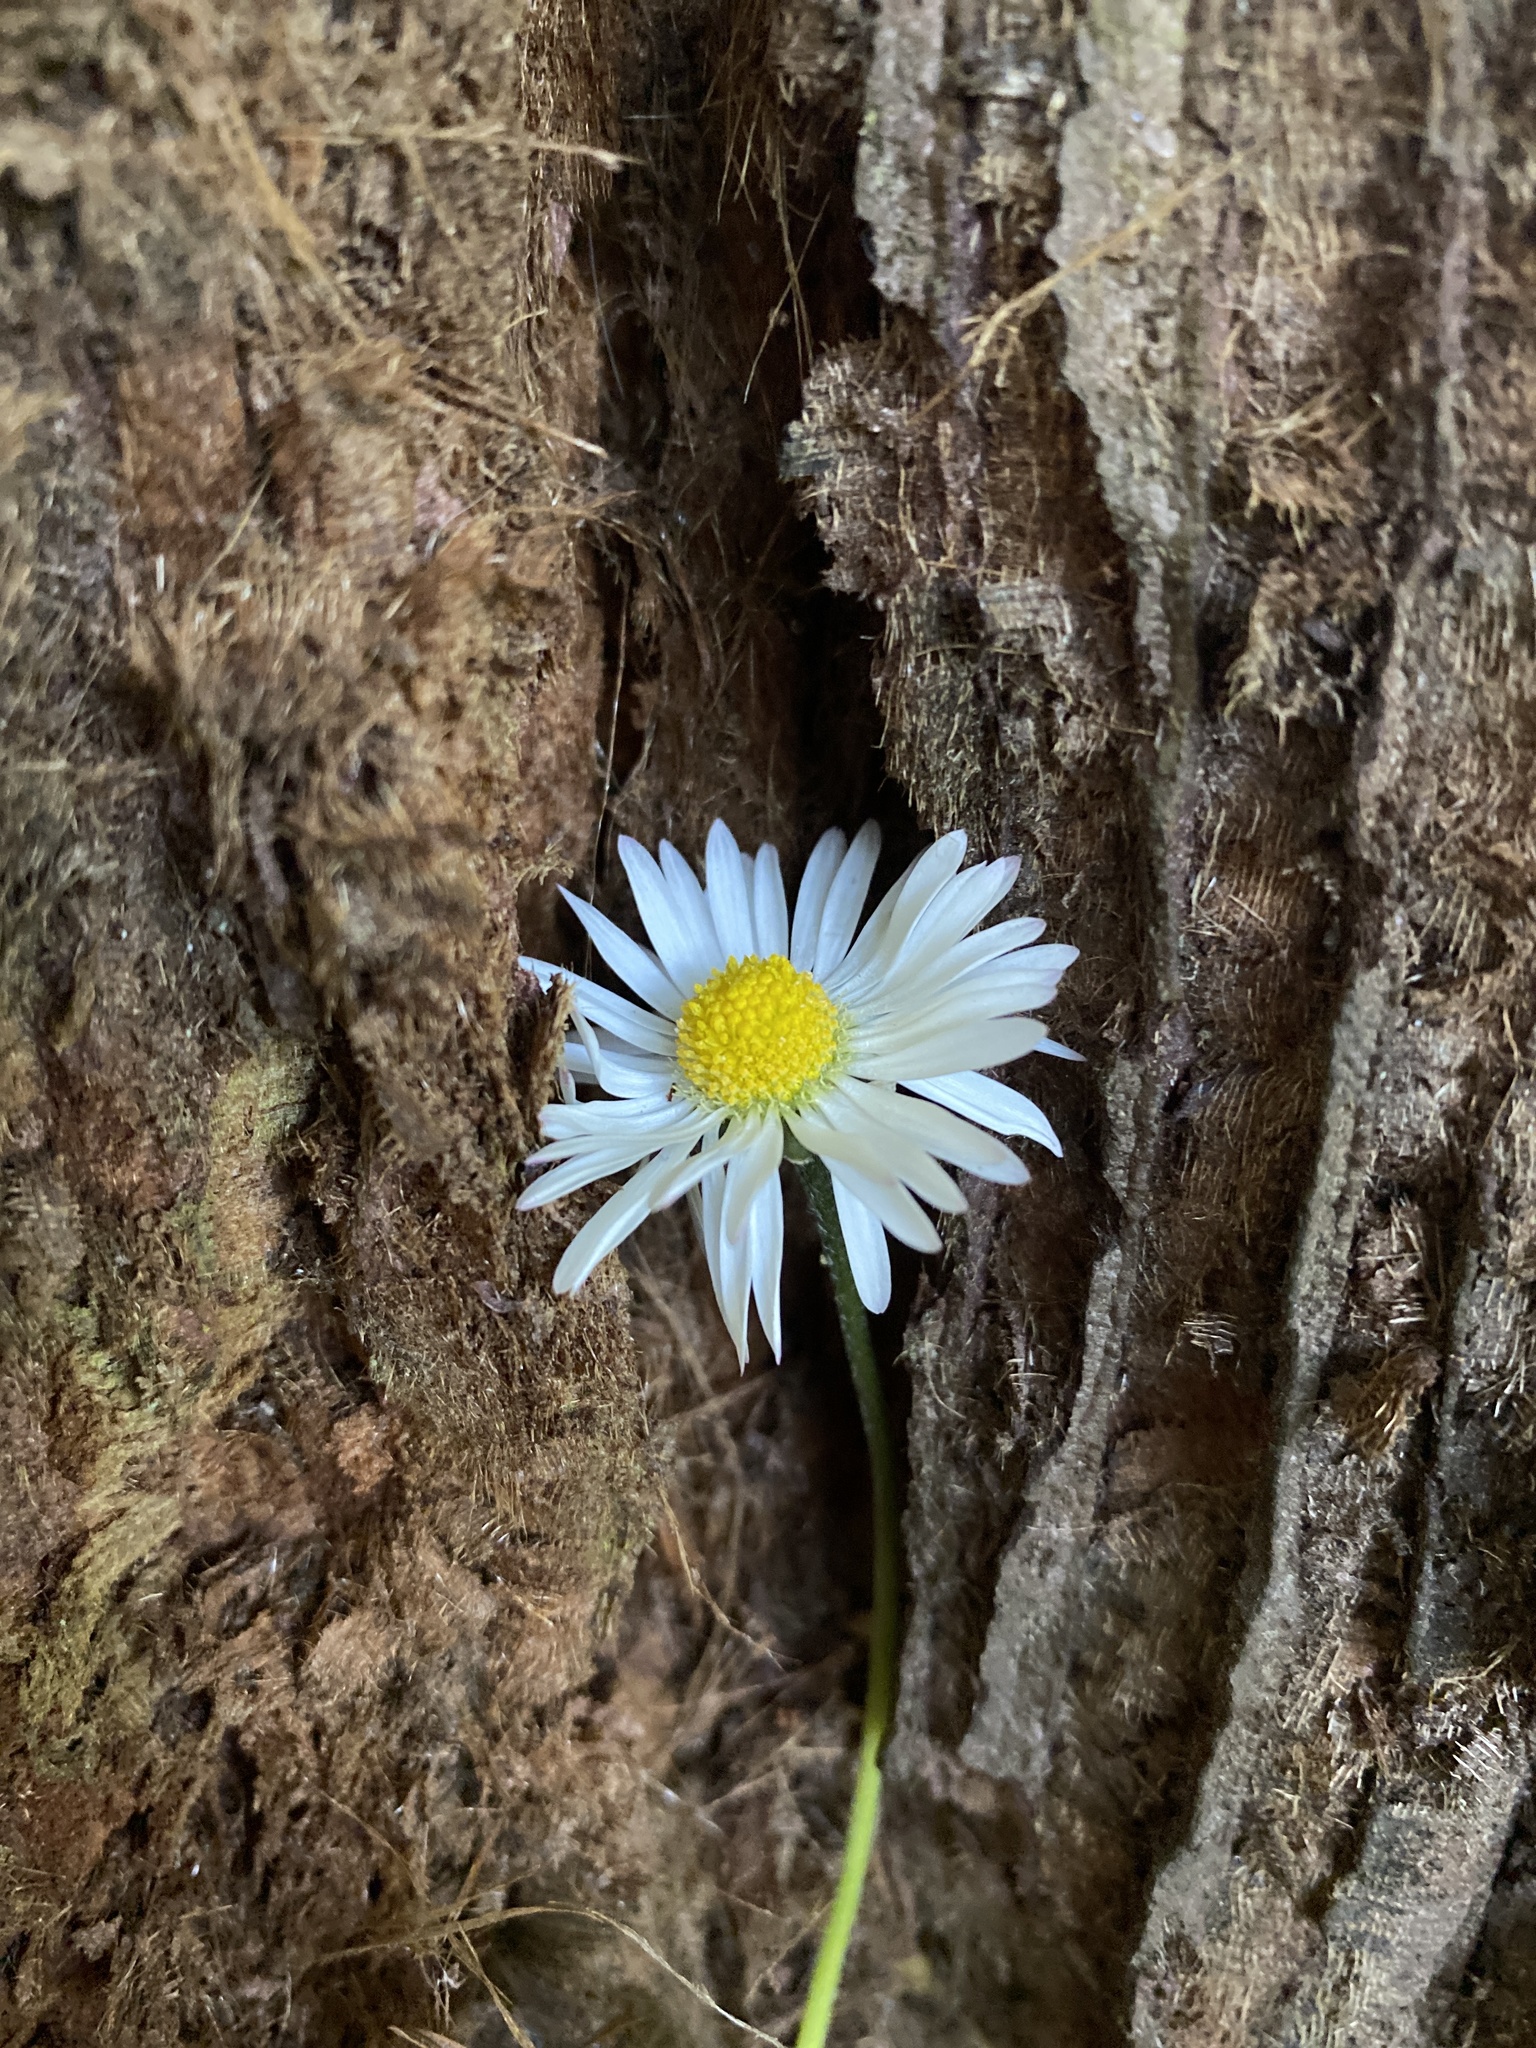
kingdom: Plantae
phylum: Tracheophyta
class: Magnoliopsida
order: Asterales
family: Asteraceae
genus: Bellis
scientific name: Bellis perennis
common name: Lawndaisy
